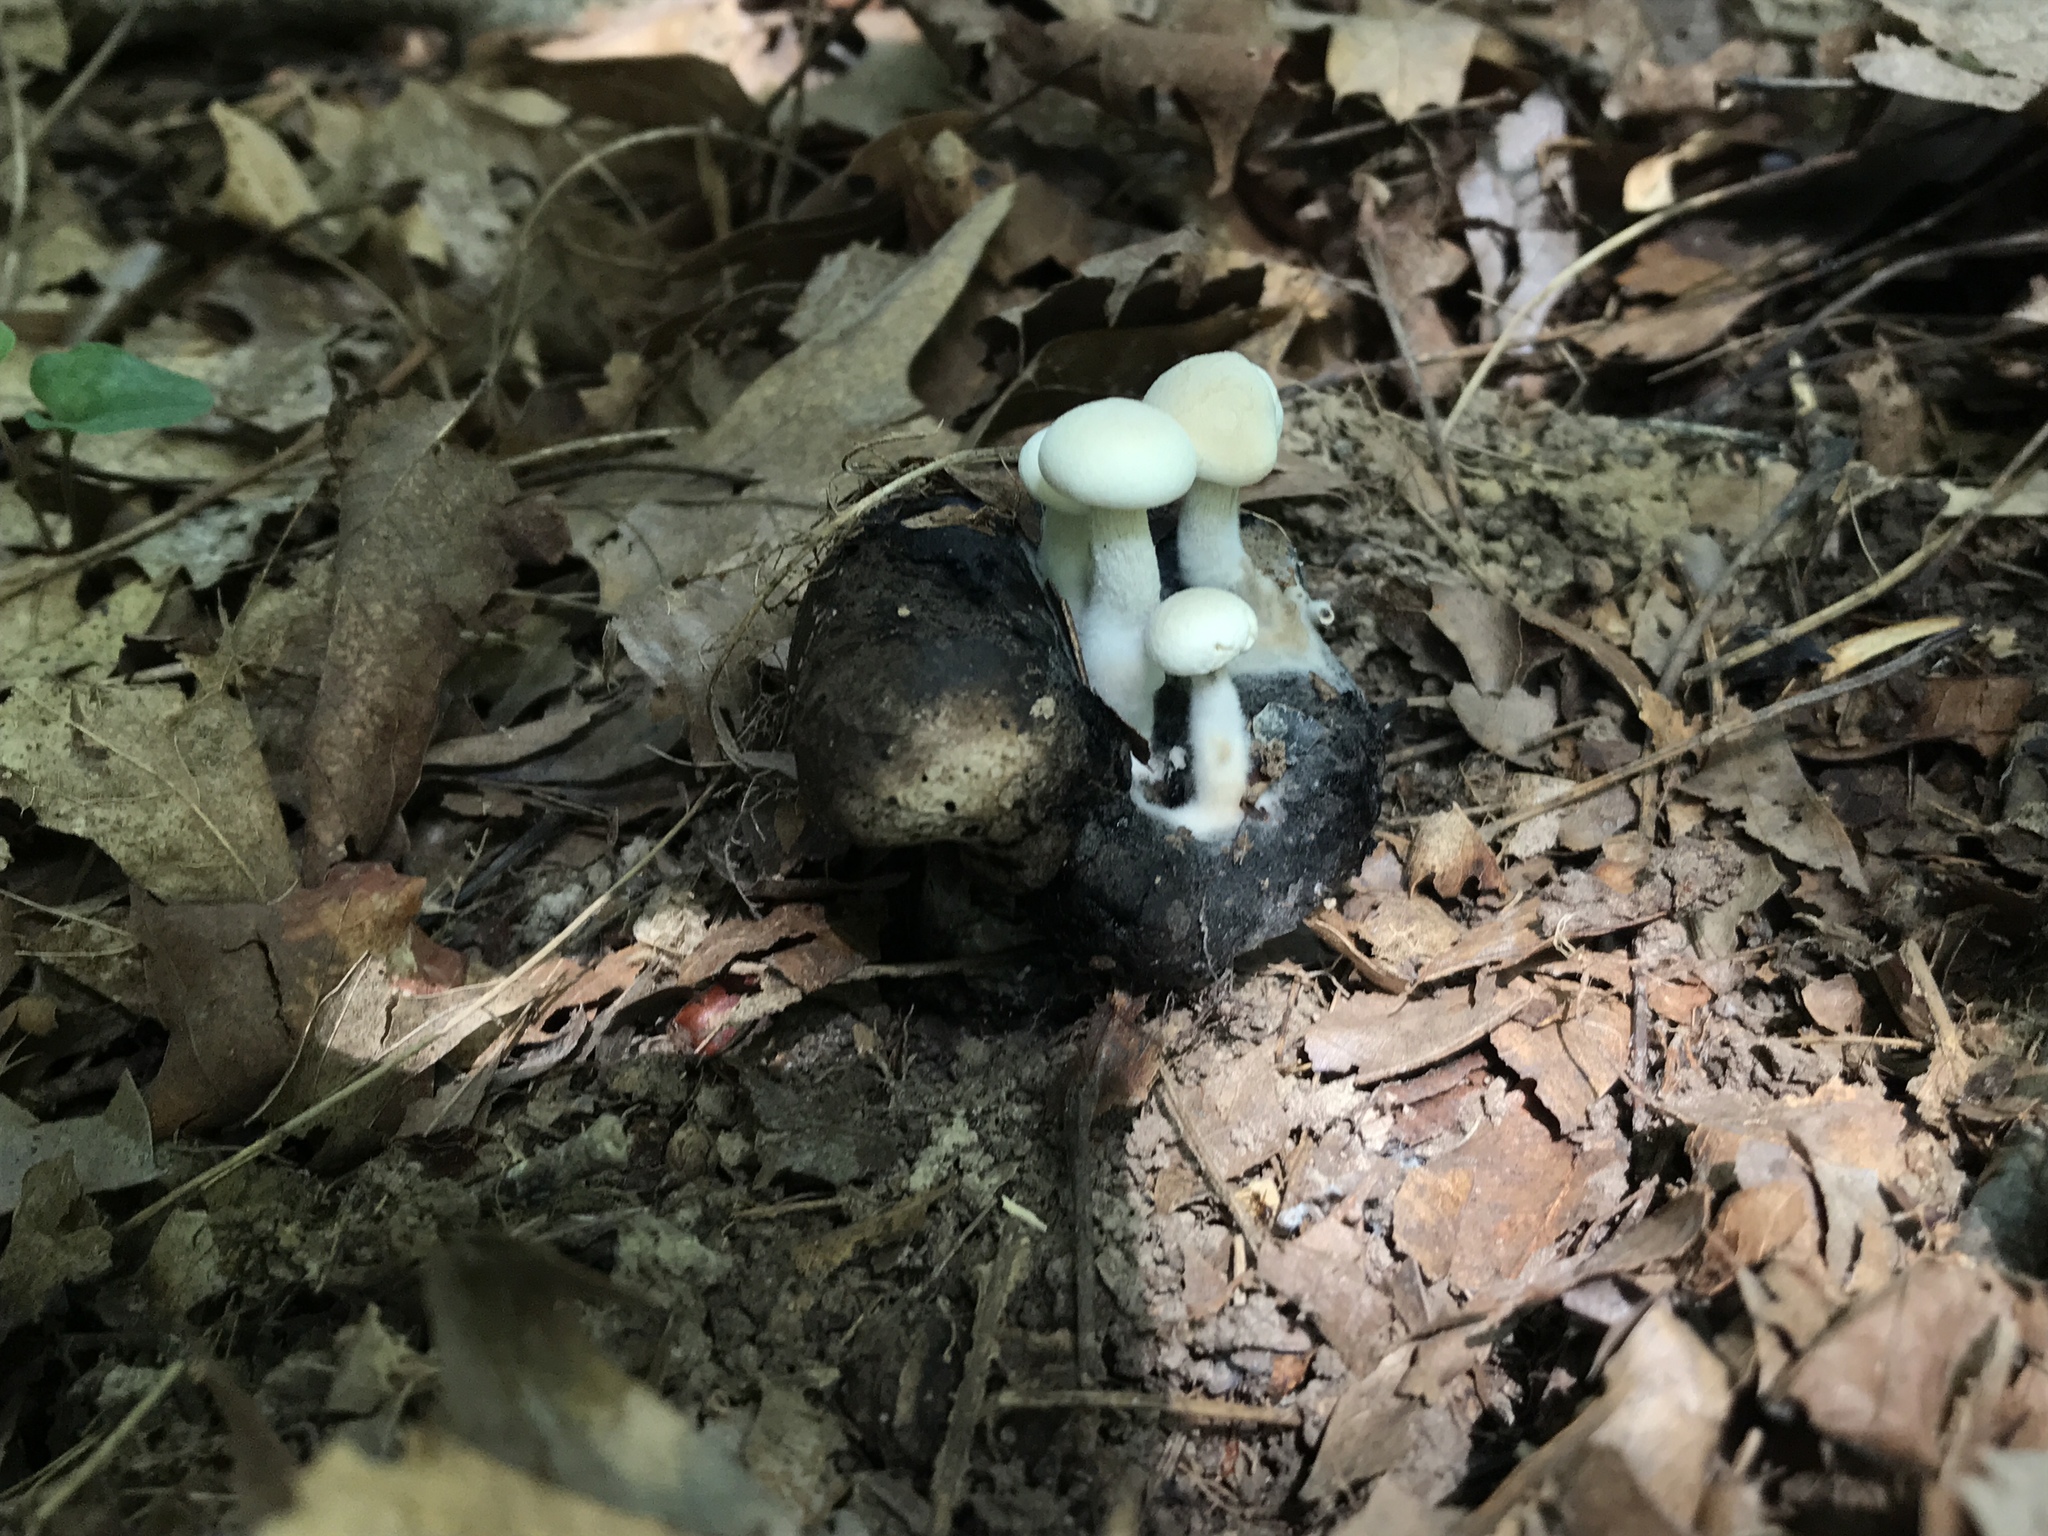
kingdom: Fungi
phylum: Basidiomycota
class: Agaricomycetes
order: Agaricales
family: Lyophyllaceae
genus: Asterophora
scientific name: Asterophora lycoperdoides
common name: Pick-a-back toadstool
